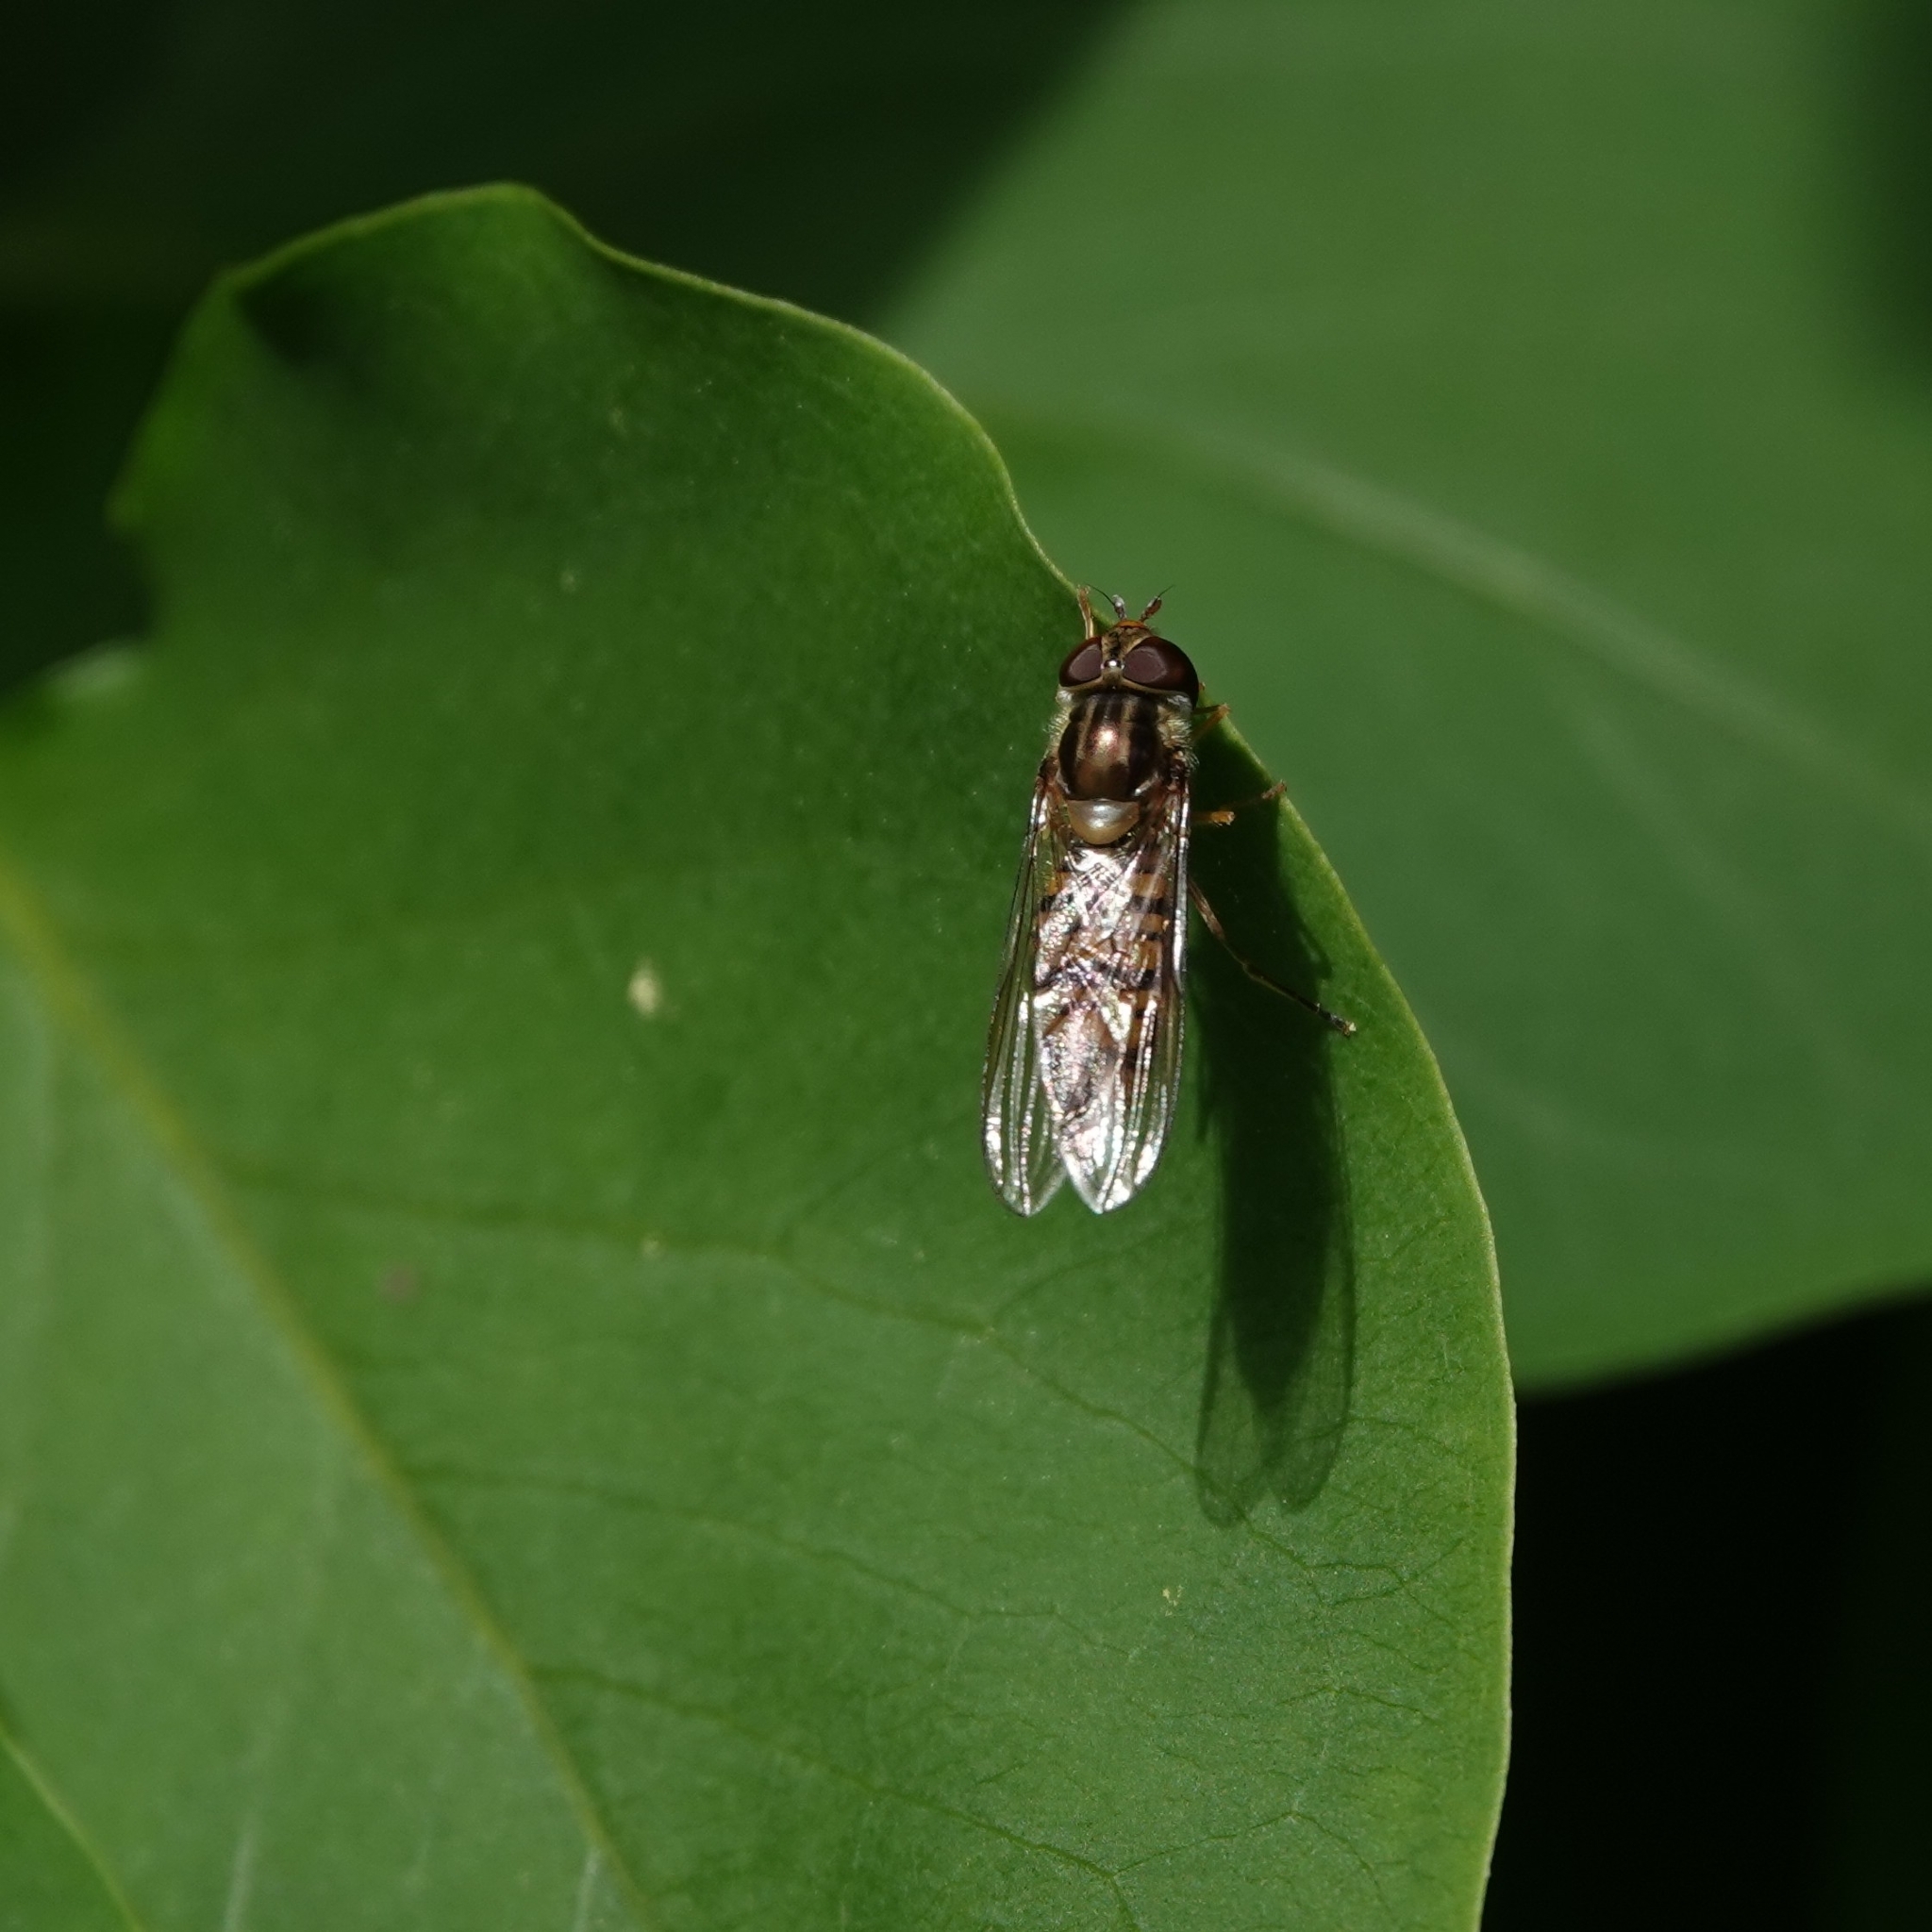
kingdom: Animalia
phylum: Arthropoda
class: Insecta
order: Diptera
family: Syrphidae
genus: Episyrphus
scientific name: Episyrphus balteatus
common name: Marmalade hoverfly
